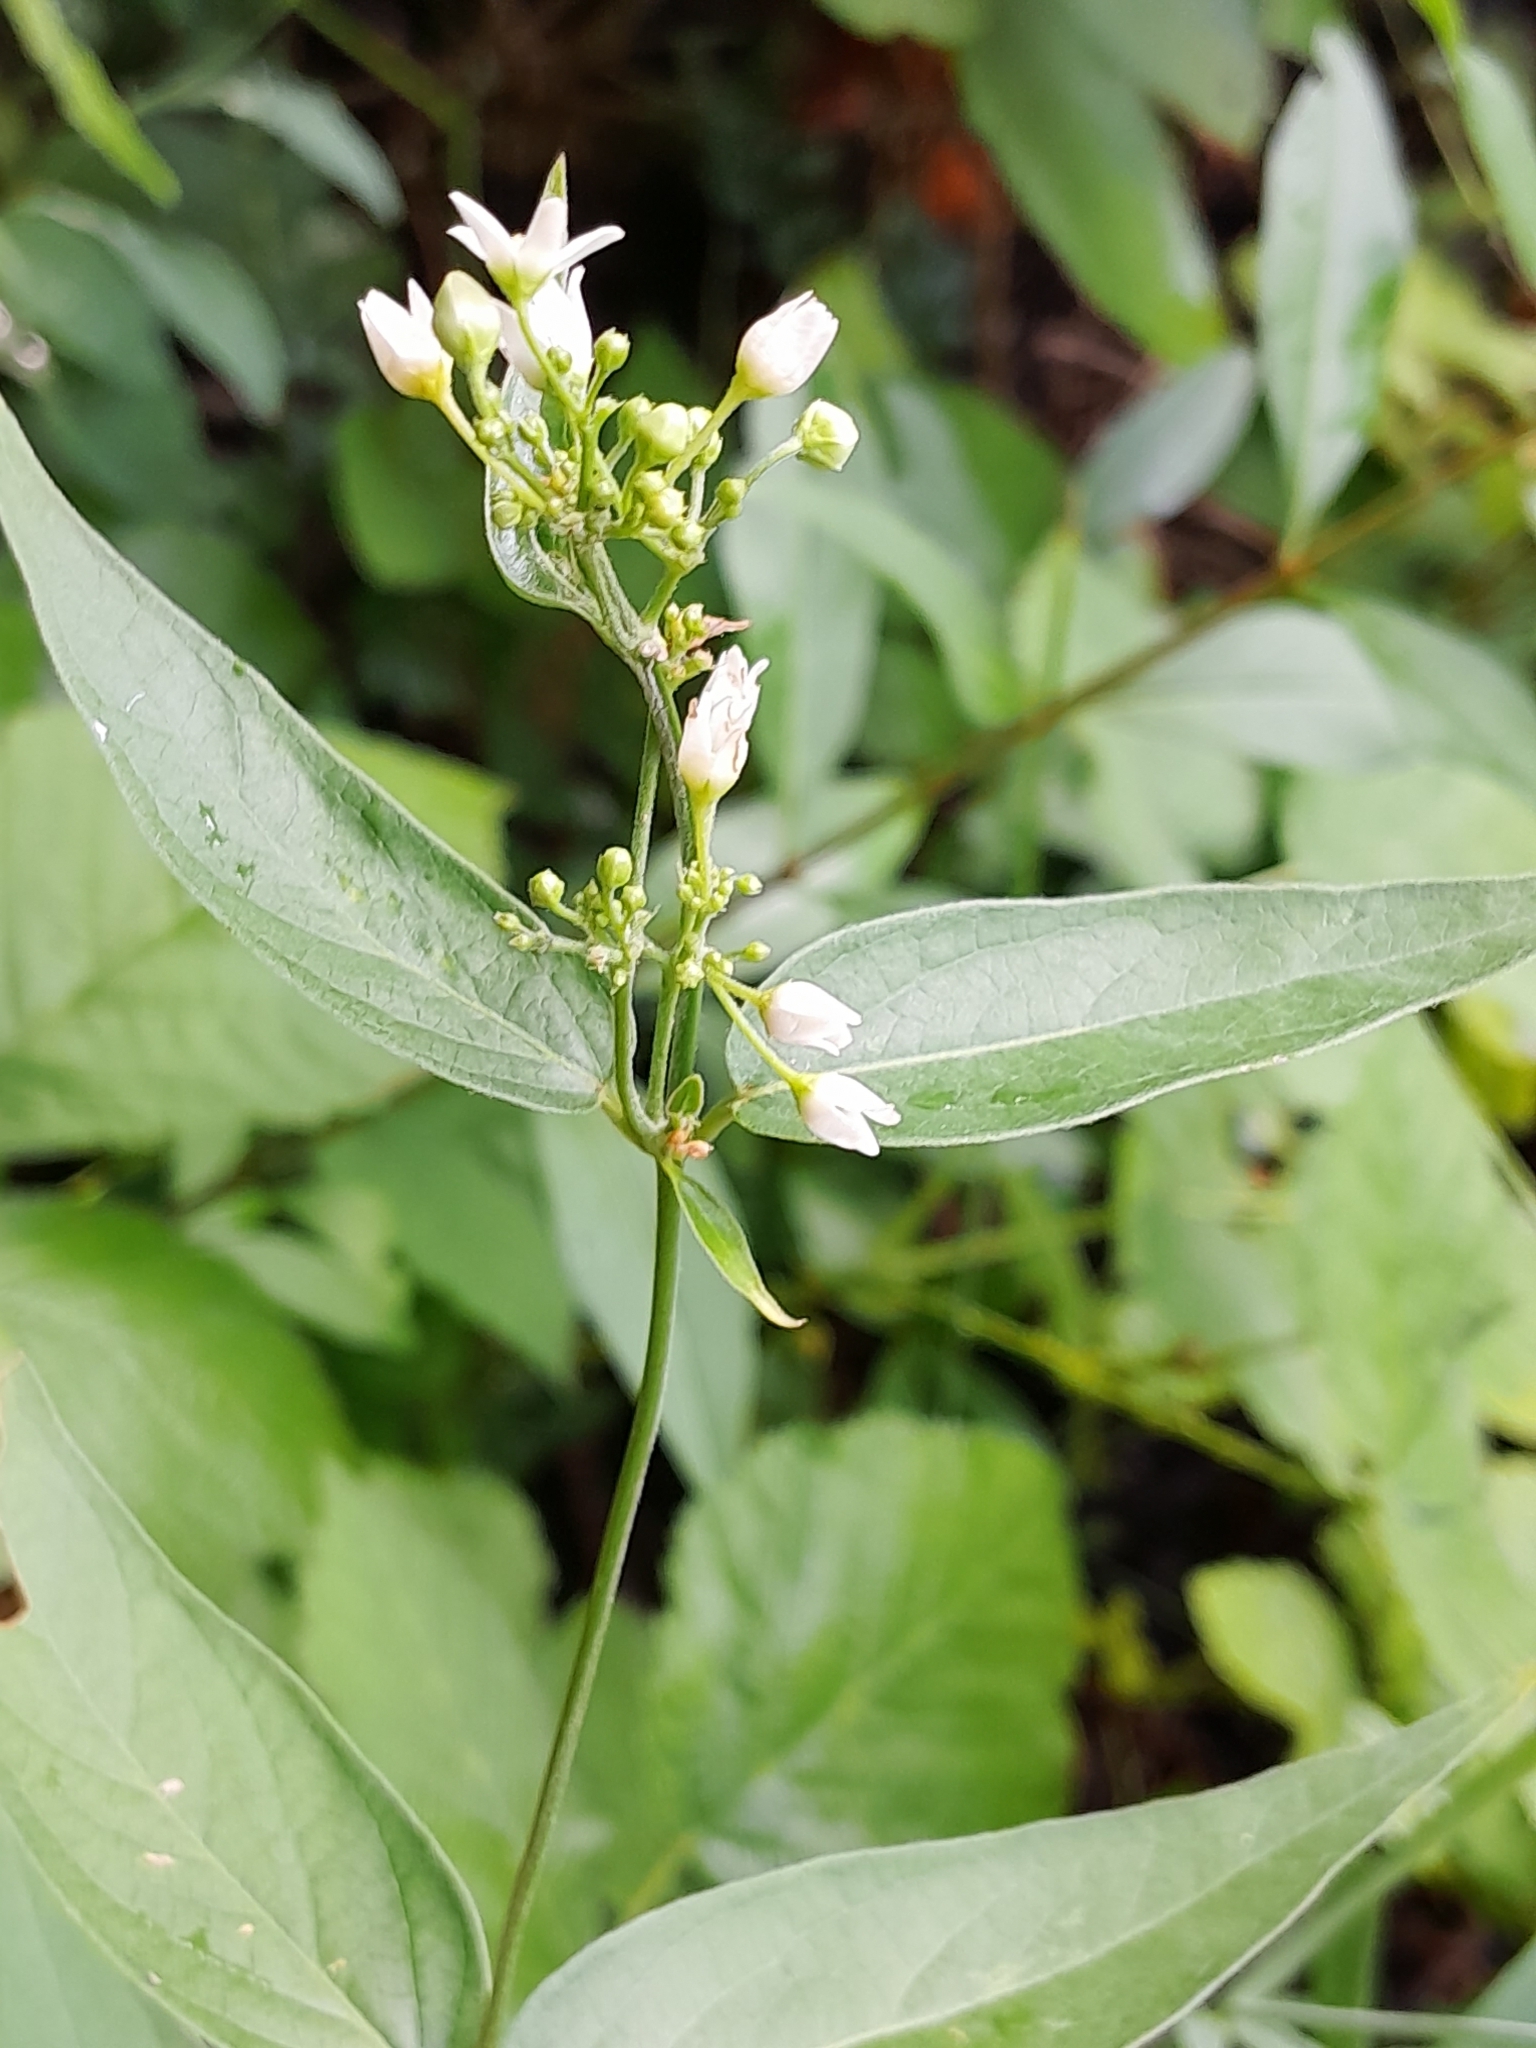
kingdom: Plantae
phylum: Tracheophyta
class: Magnoliopsida
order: Gentianales
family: Apocynaceae
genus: Vincetoxicum
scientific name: Vincetoxicum hirundinaria
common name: White swallowwort
